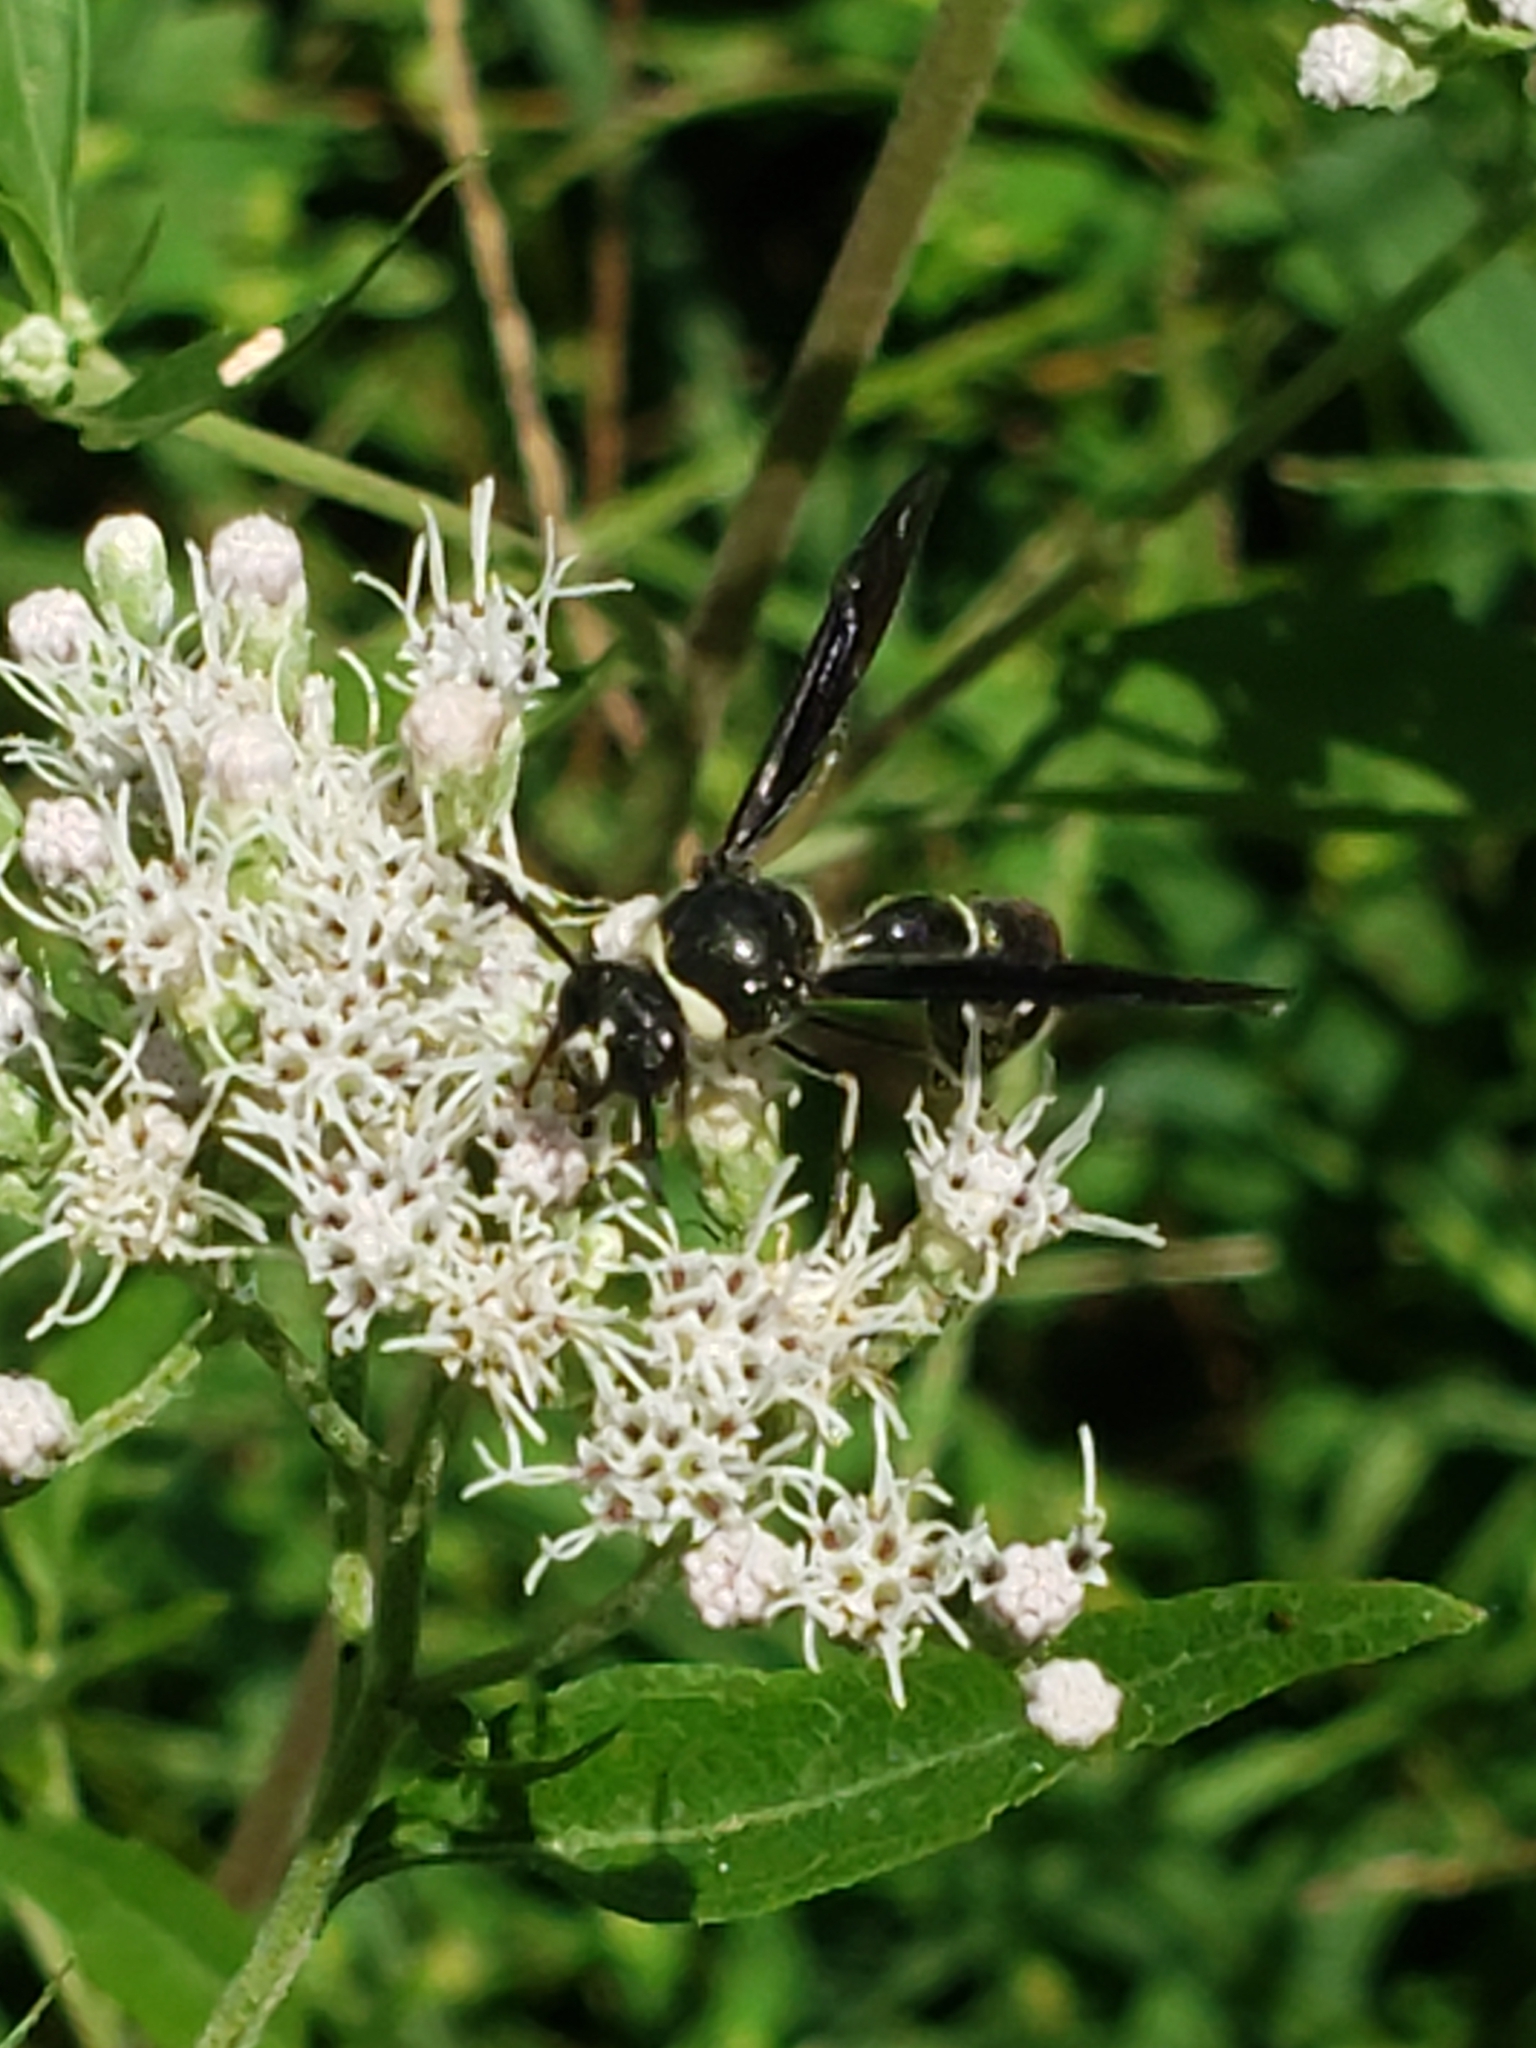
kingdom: Animalia
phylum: Arthropoda
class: Insecta
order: Hymenoptera
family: Vespidae
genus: Eumenes
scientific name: Eumenes fraternus
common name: Fraternal potter wasp
